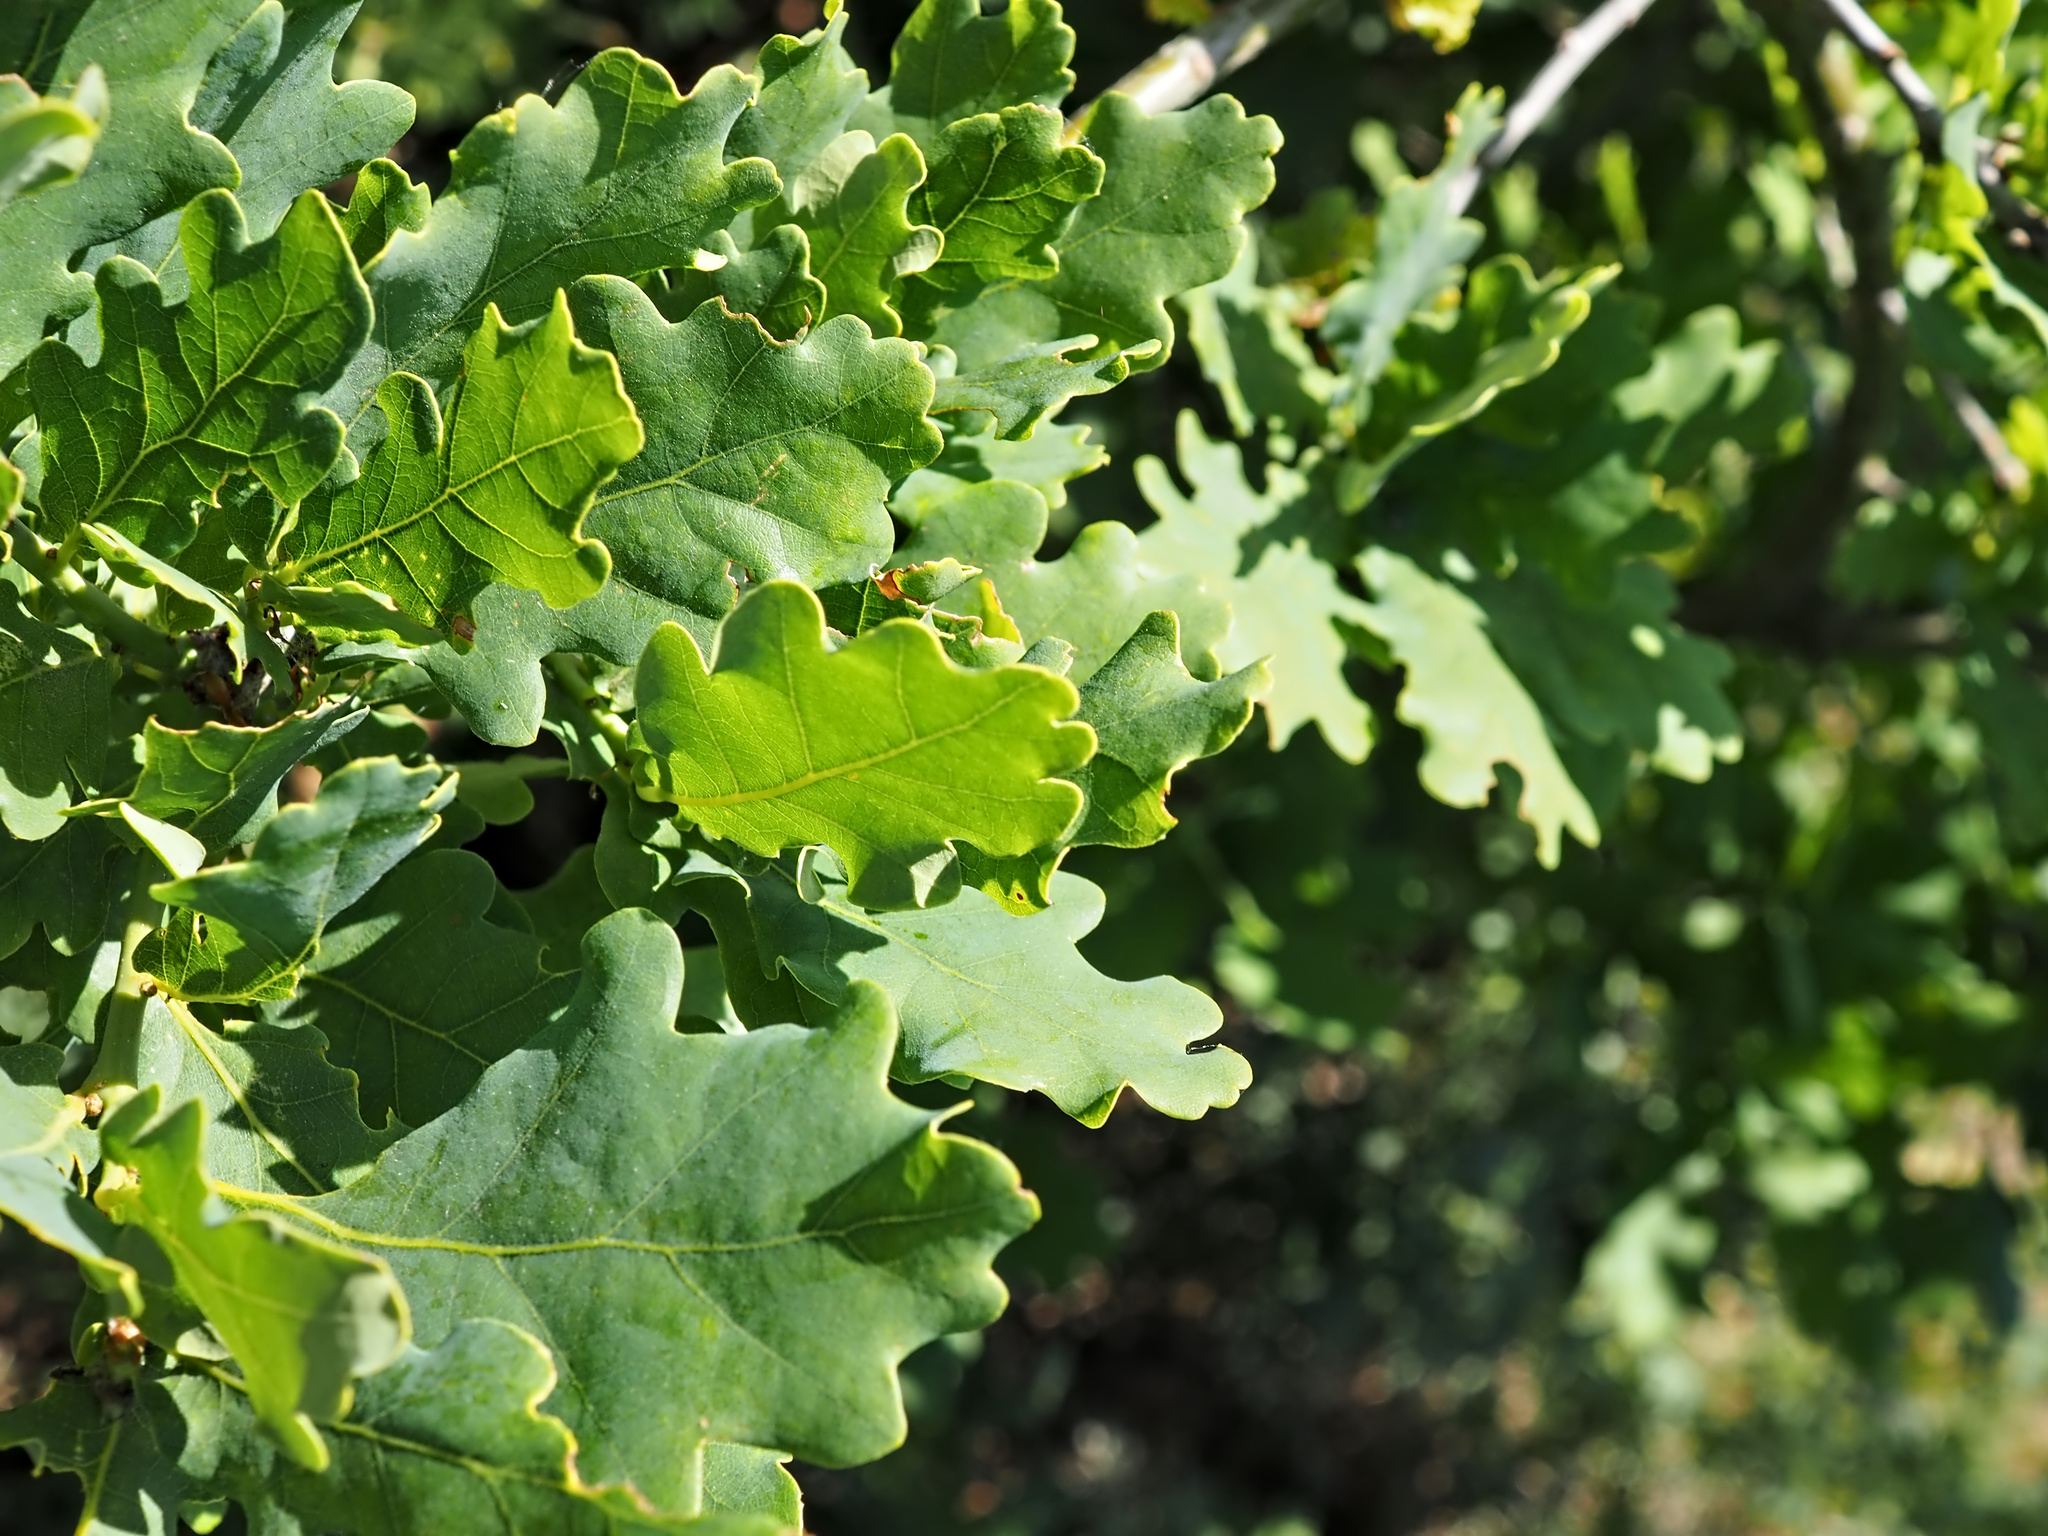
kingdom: Plantae
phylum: Tracheophyta
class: Magnoliopsida
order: Fagales
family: Fagaceae
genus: Quercus
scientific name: Quercus robur
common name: Pedunculate oak
